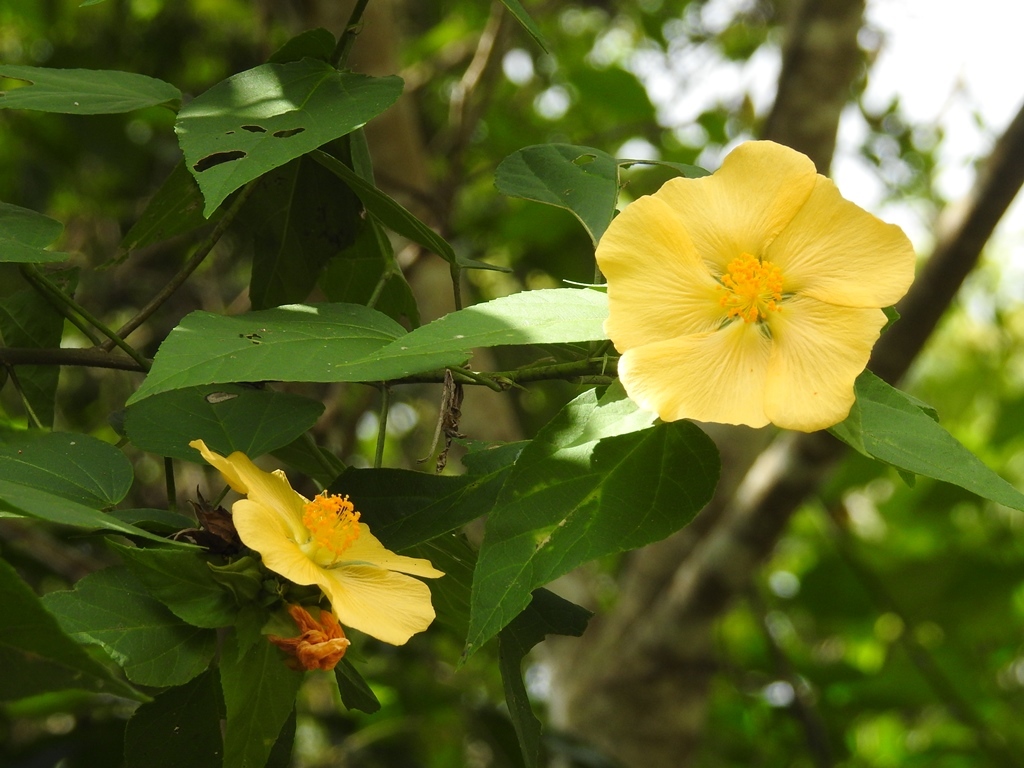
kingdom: Plantae
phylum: Tracheophyta
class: Magnoliopsida
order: Malvales
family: Malvaceae
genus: Dendrosida
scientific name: Dendrosida sharpiana
